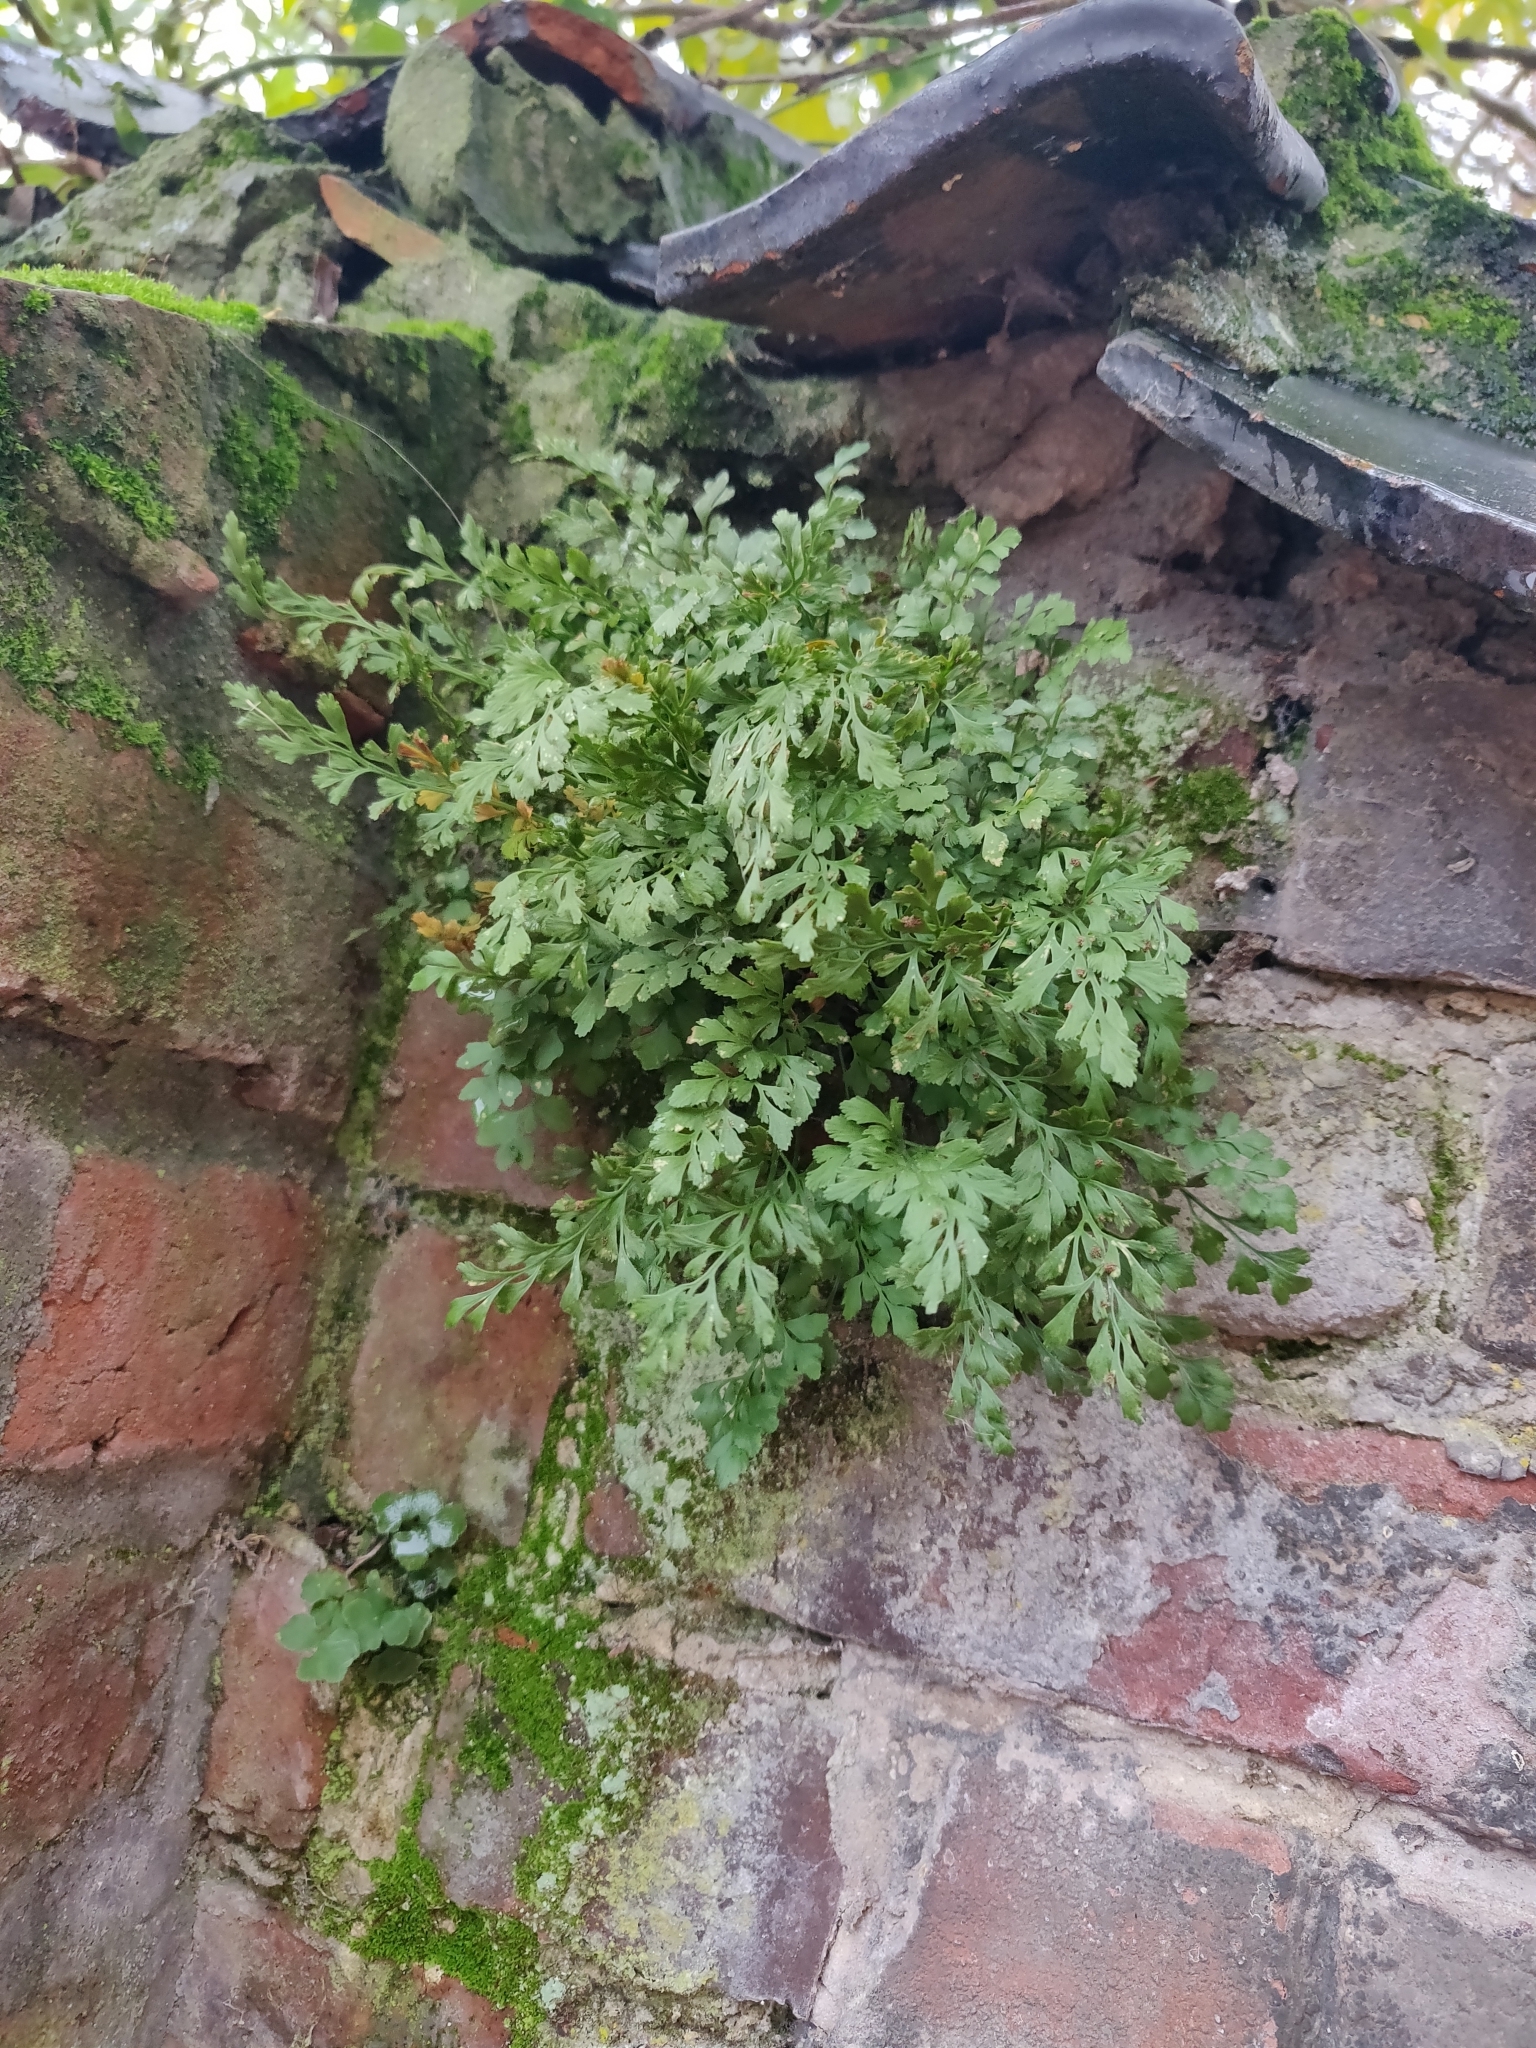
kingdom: Plantae
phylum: Tracheophyta
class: Polypodiopsida
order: Polypodiales
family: Aspleniaceae
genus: Asplenium
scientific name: Asplenium ruta-muraria
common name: Wall-rue
